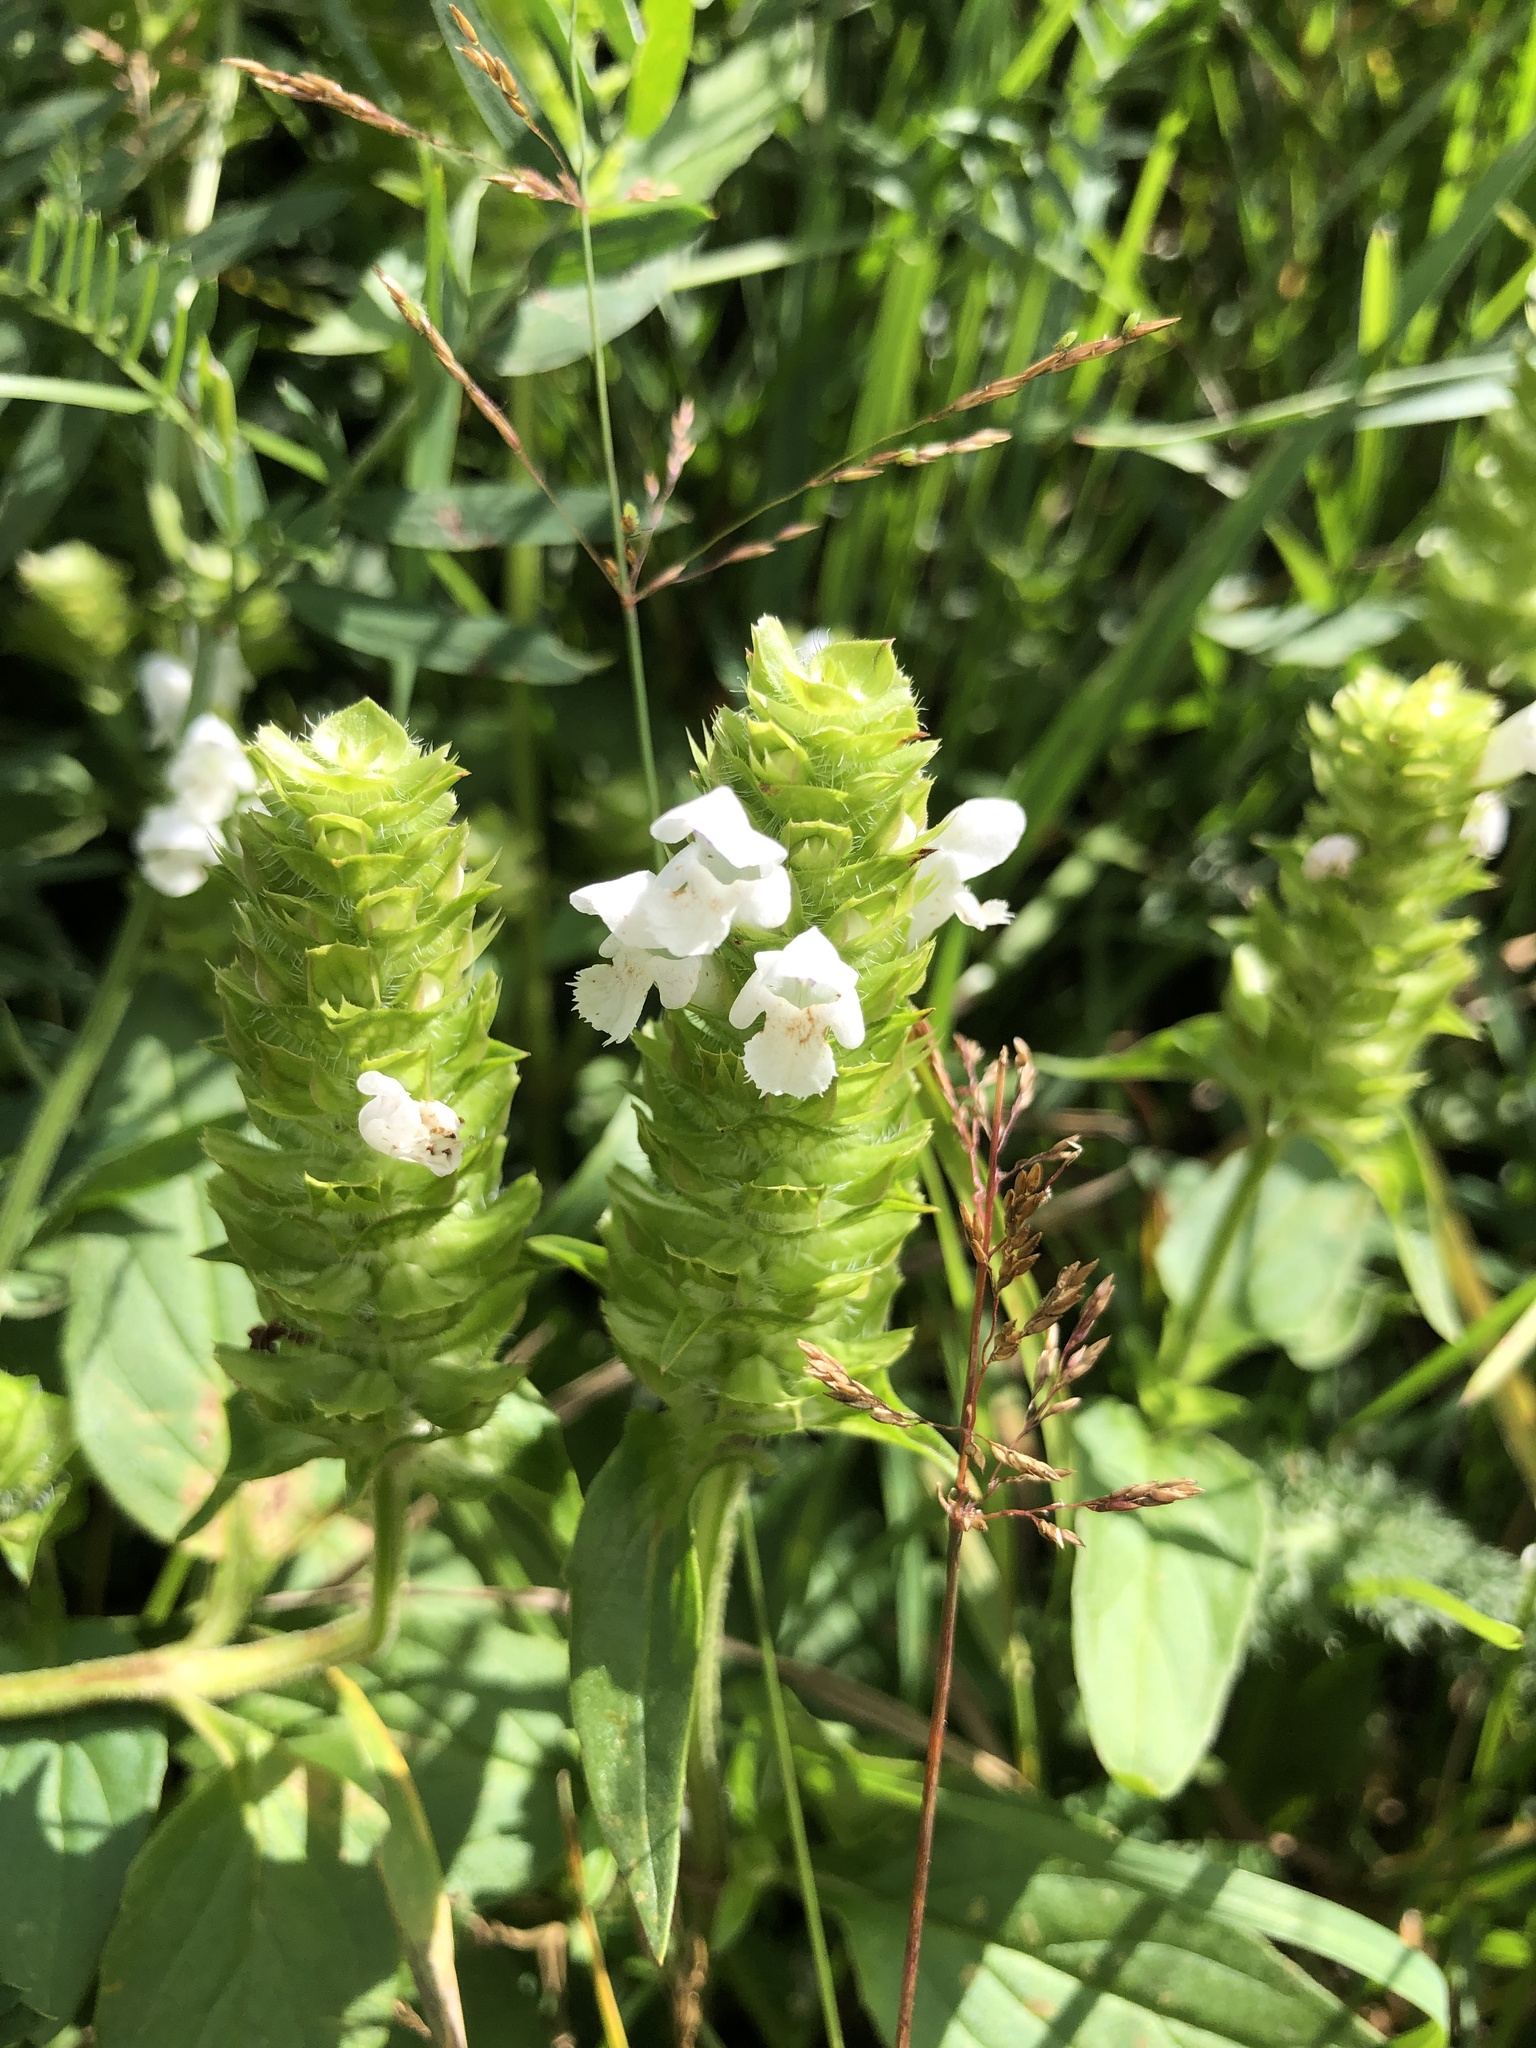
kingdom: Plantae
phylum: Tracheophyta
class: Magnoliopsida
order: Lamiales
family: Lamiaceae
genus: Prunella
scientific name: Prunella vulgaris
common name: Heal-all
